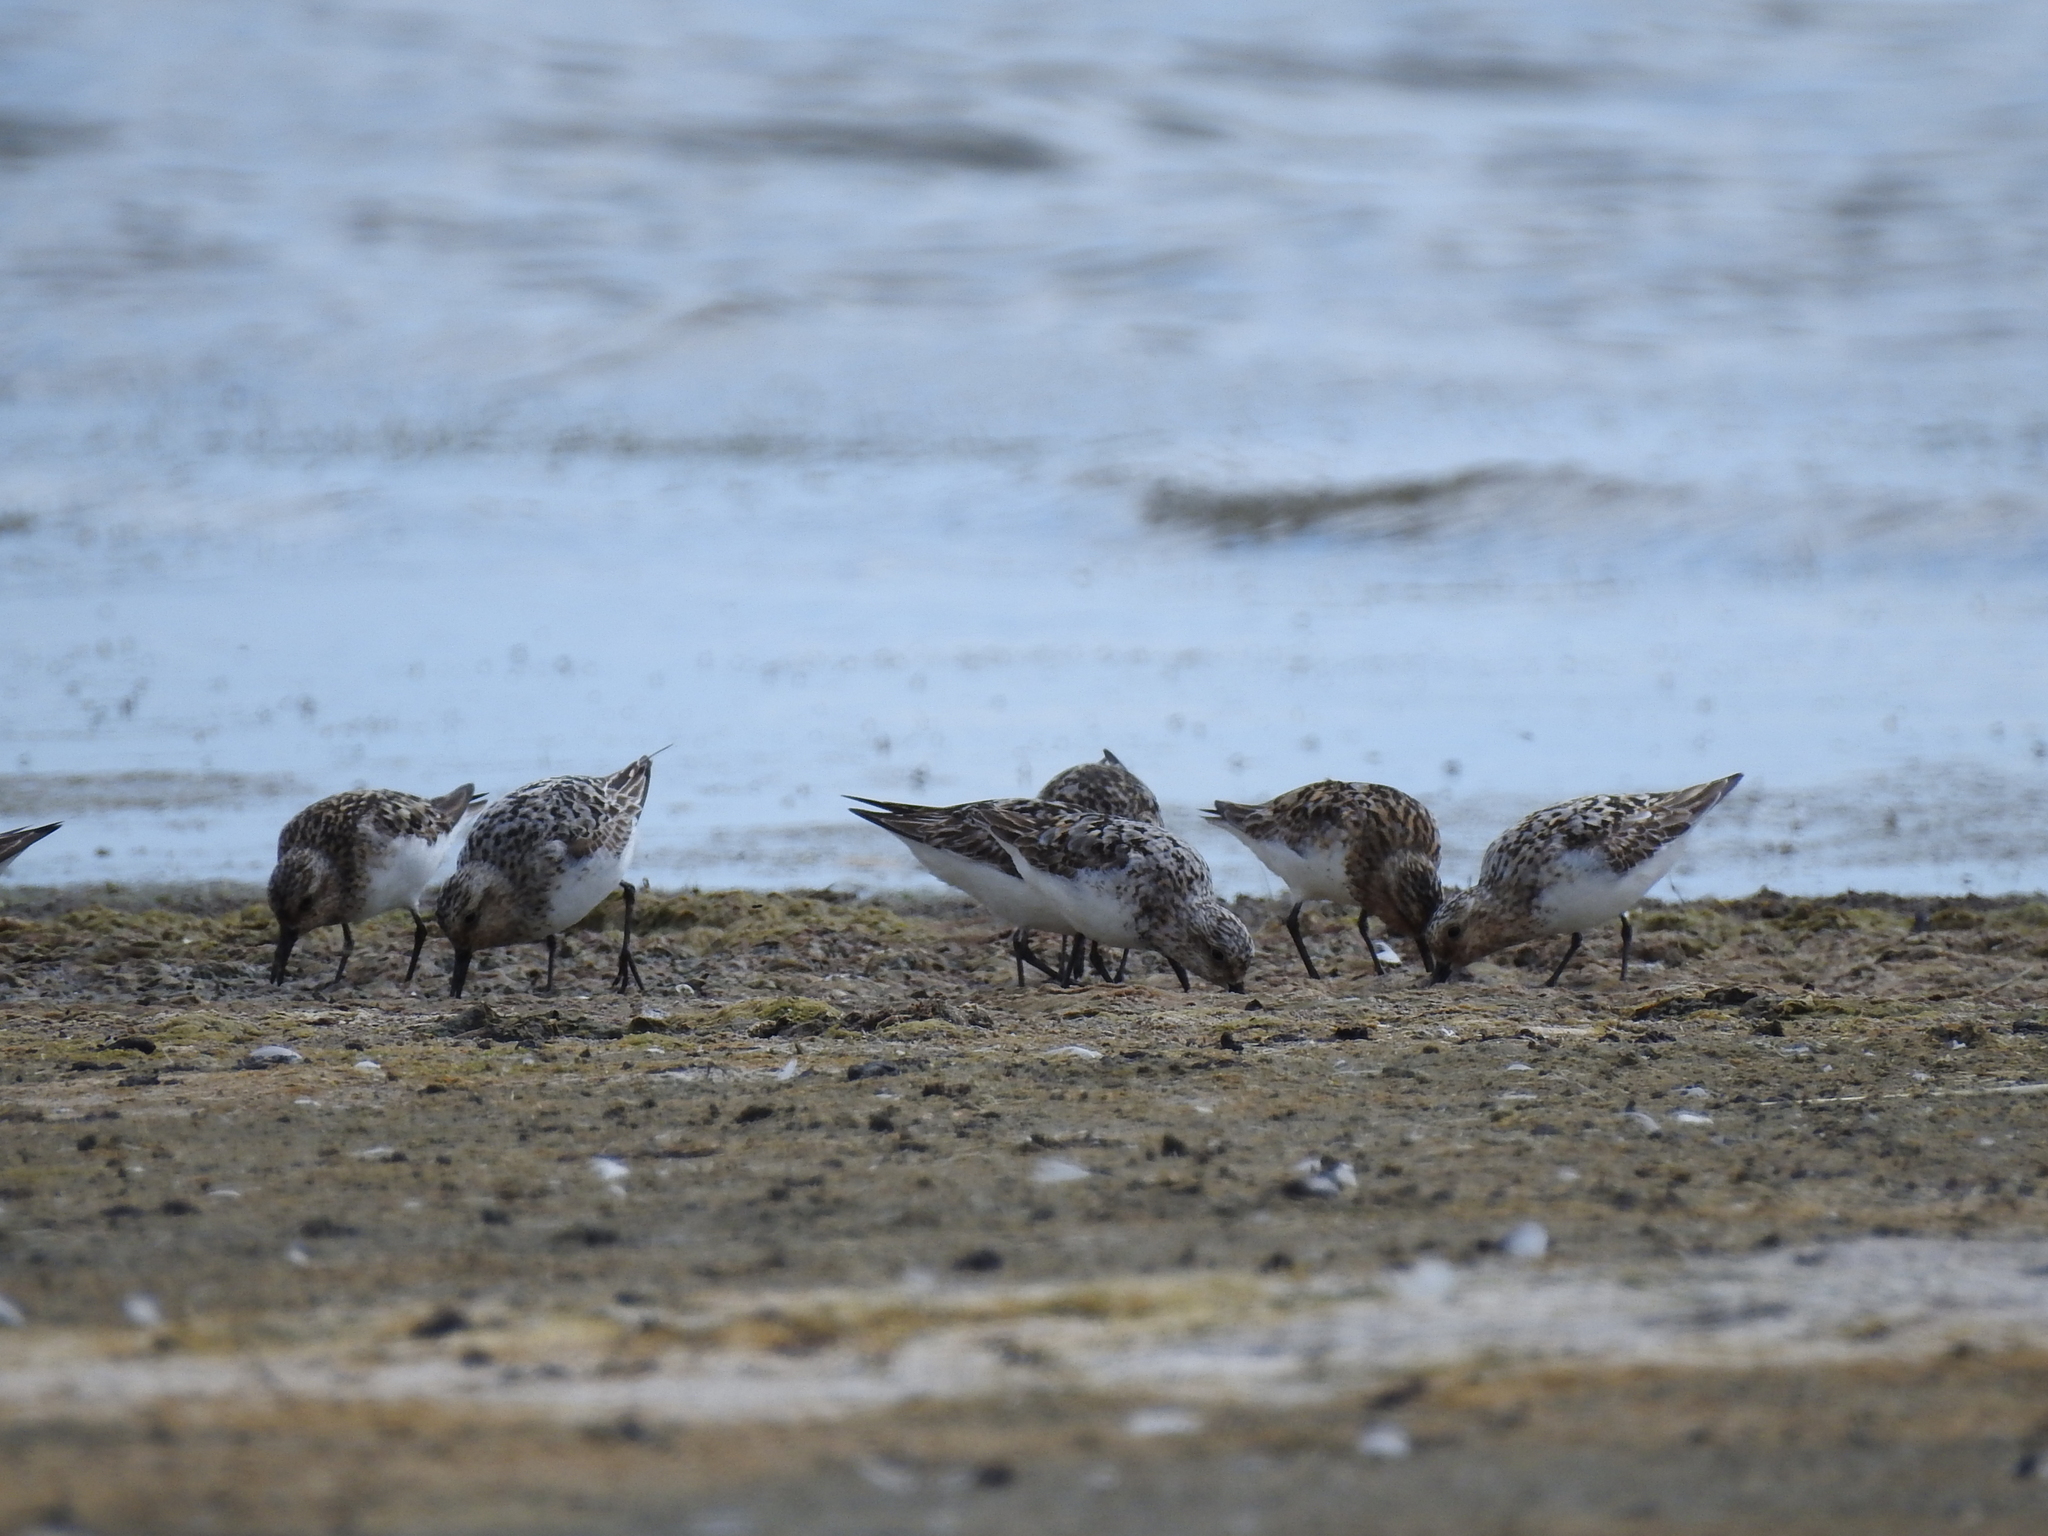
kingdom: Animalia
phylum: Chordata
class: Aves
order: Charadriiformes
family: Scolopacidae
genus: Calidris
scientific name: Calidris alba
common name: Sanderling
